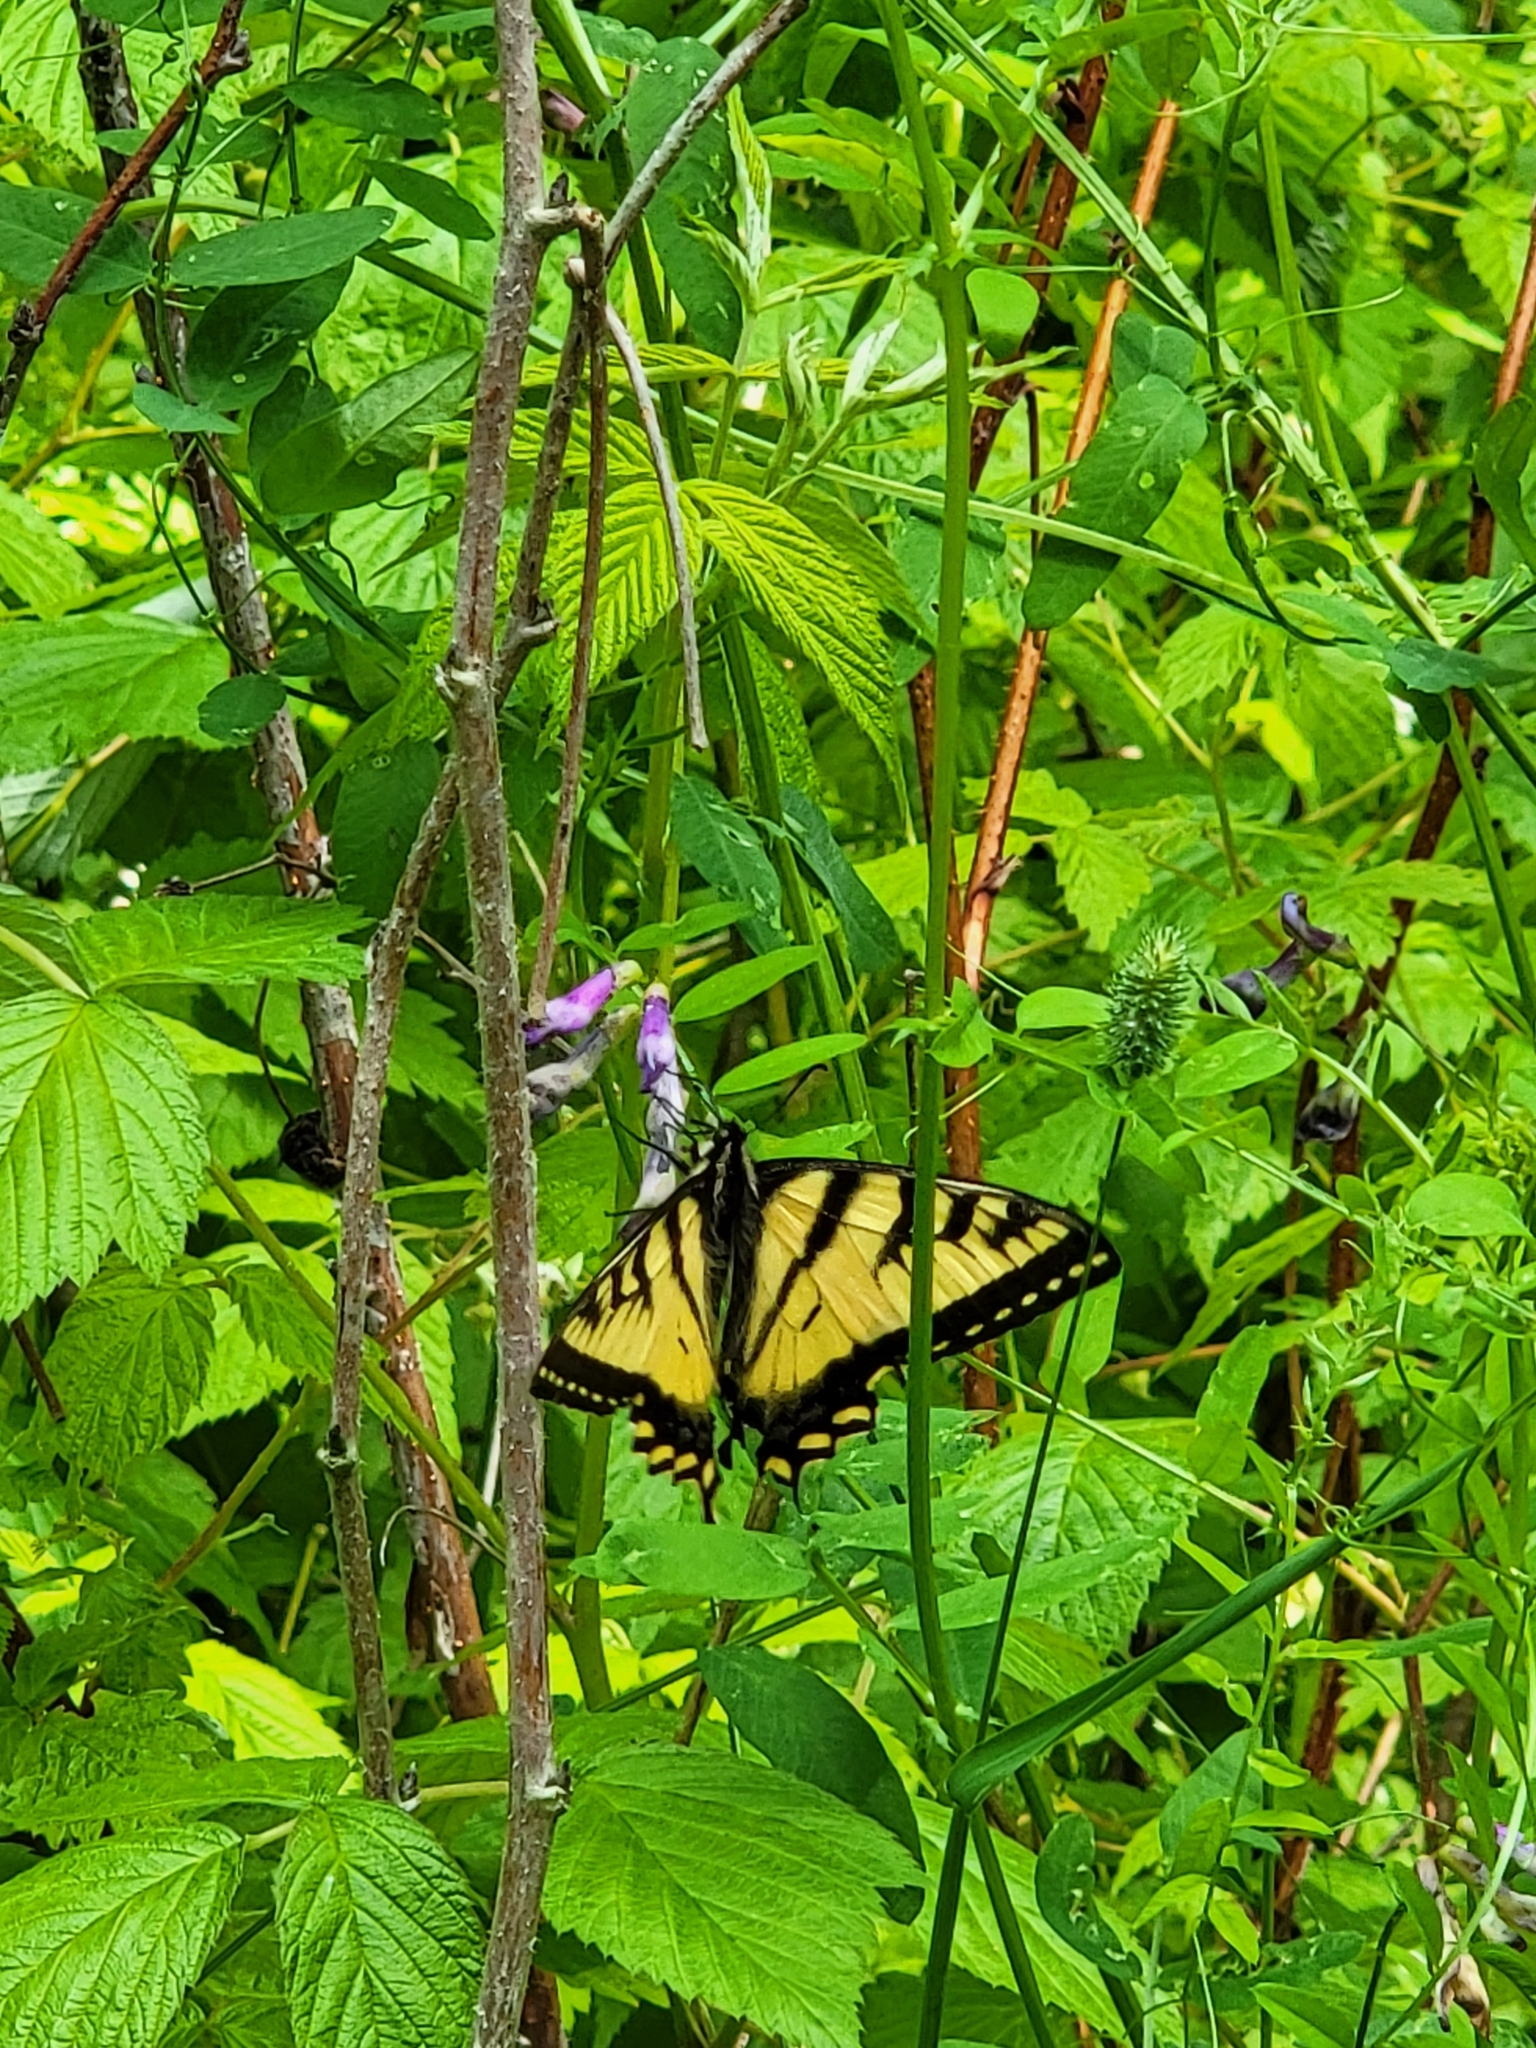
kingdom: Animalia
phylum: Arthropoda
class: Insecta
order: Lepidoptera
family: Papilionidae
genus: Papilio
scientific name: Papilio canadensis
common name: Canadian tiger swallowtail
